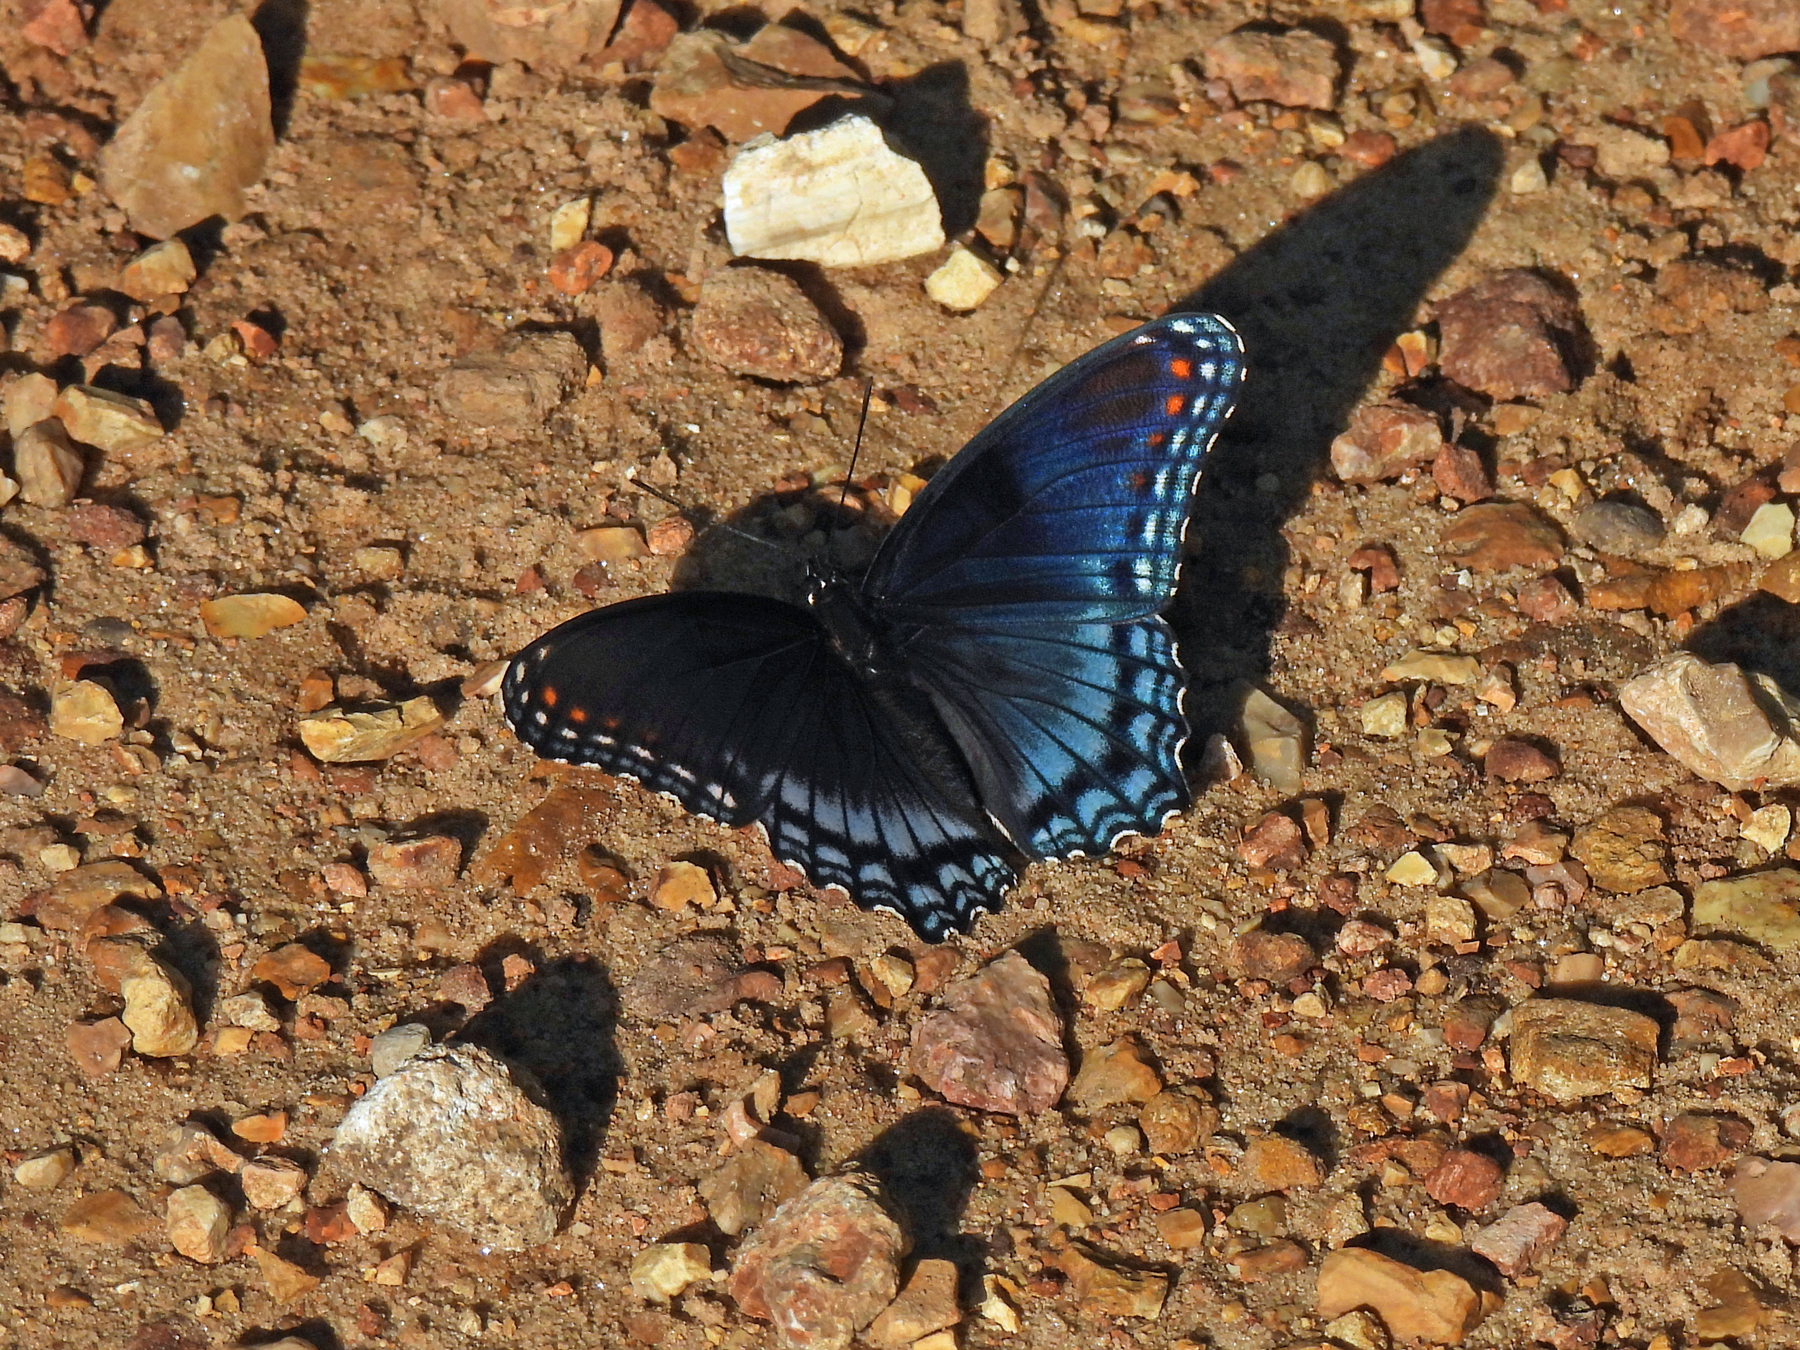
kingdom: Animalia
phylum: Arthropoda
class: Insecta
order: Lepidoptera
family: Nymphalidae
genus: Limenitis
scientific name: Limenitis astyanax
